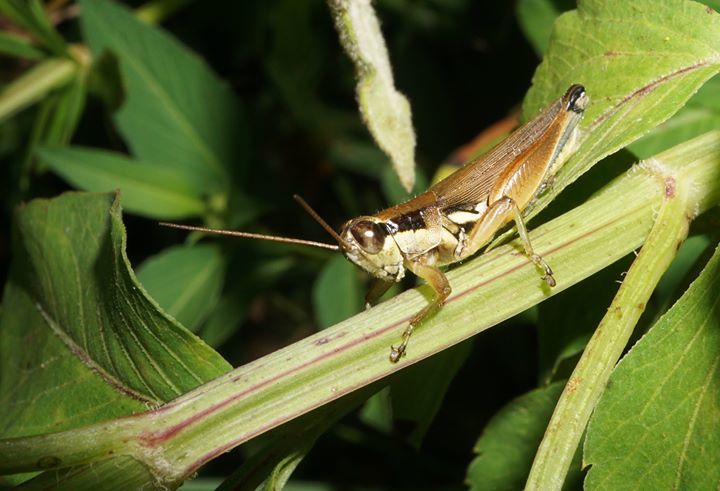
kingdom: Animalia
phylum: Arthropoda
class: Insecta
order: Orthoptera
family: Acrididae
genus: Paroxya
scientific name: Paroxya atlantica
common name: Atlantic grasshopper
